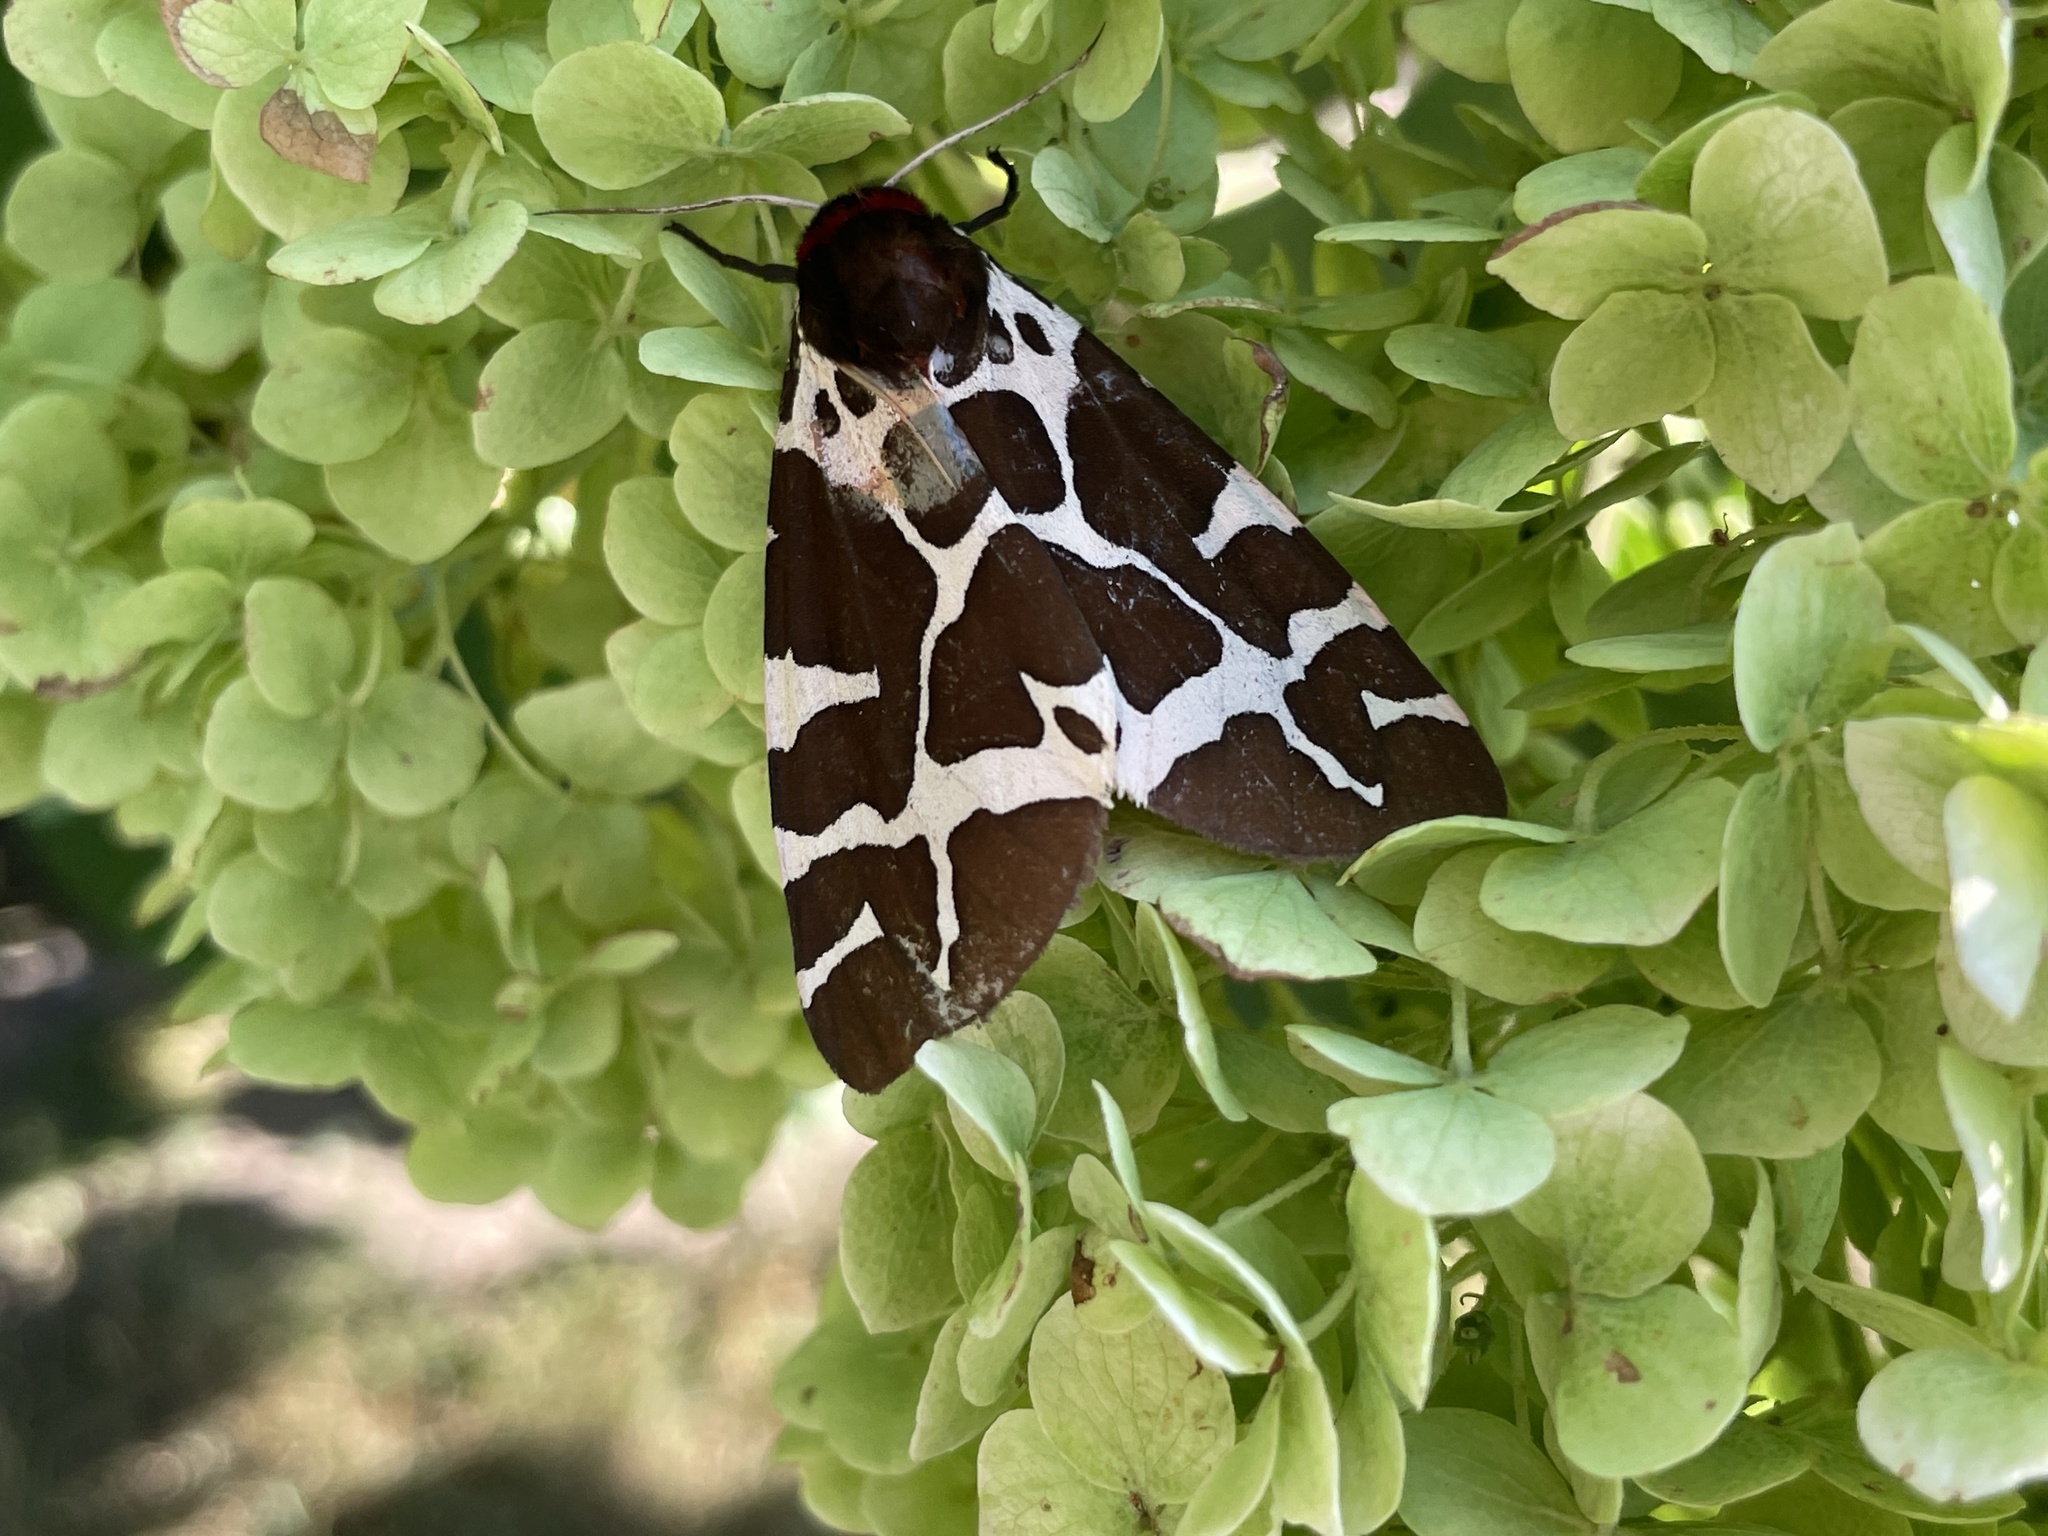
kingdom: Animalia
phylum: Arthropoda
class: Insecta
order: Lepidoptera
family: Erebidae
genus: Arctia
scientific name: Arctia caja
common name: Garden tiger
